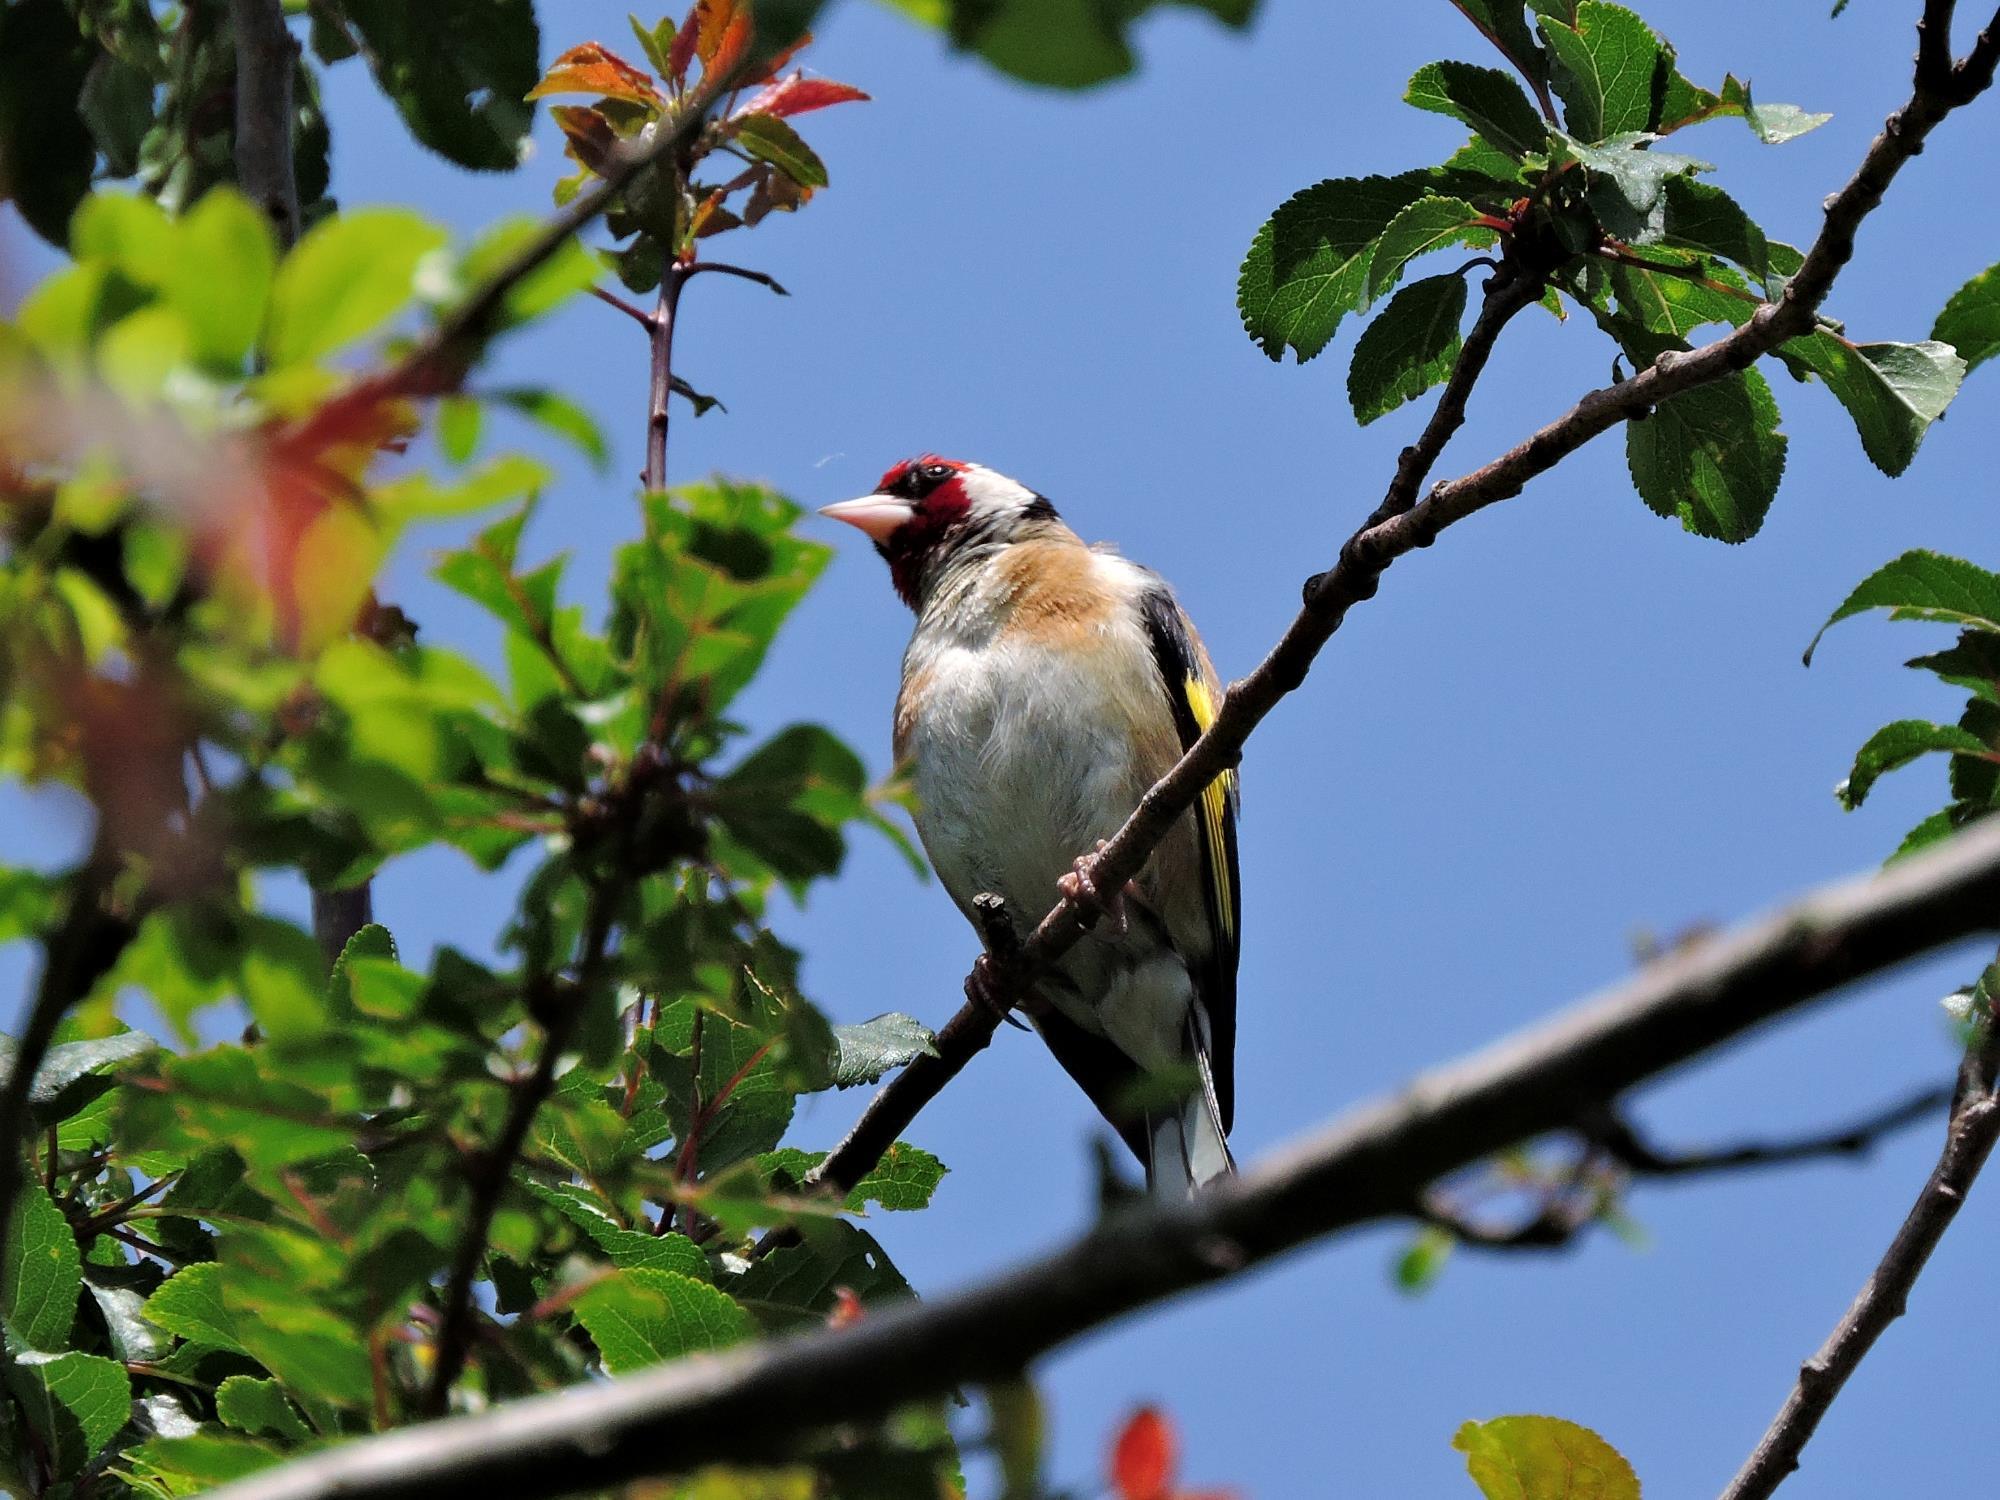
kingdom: Animalia
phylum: Chordata
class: Aves
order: Passeriformes
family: Fringillidae
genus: Carduelis
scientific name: Carduelis carduelis
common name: European goldfinch
